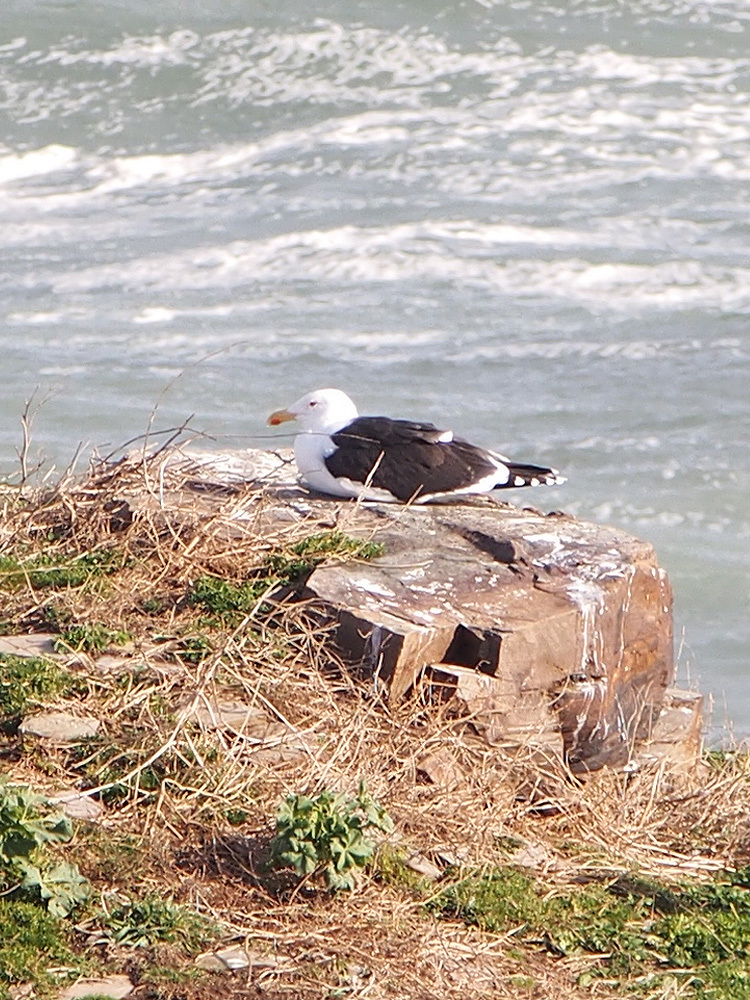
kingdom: Animalia
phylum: Chordata
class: Aves
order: Charadriiformes
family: Laridae
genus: Larus
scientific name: Larus marinus
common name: Great black-backed gull
